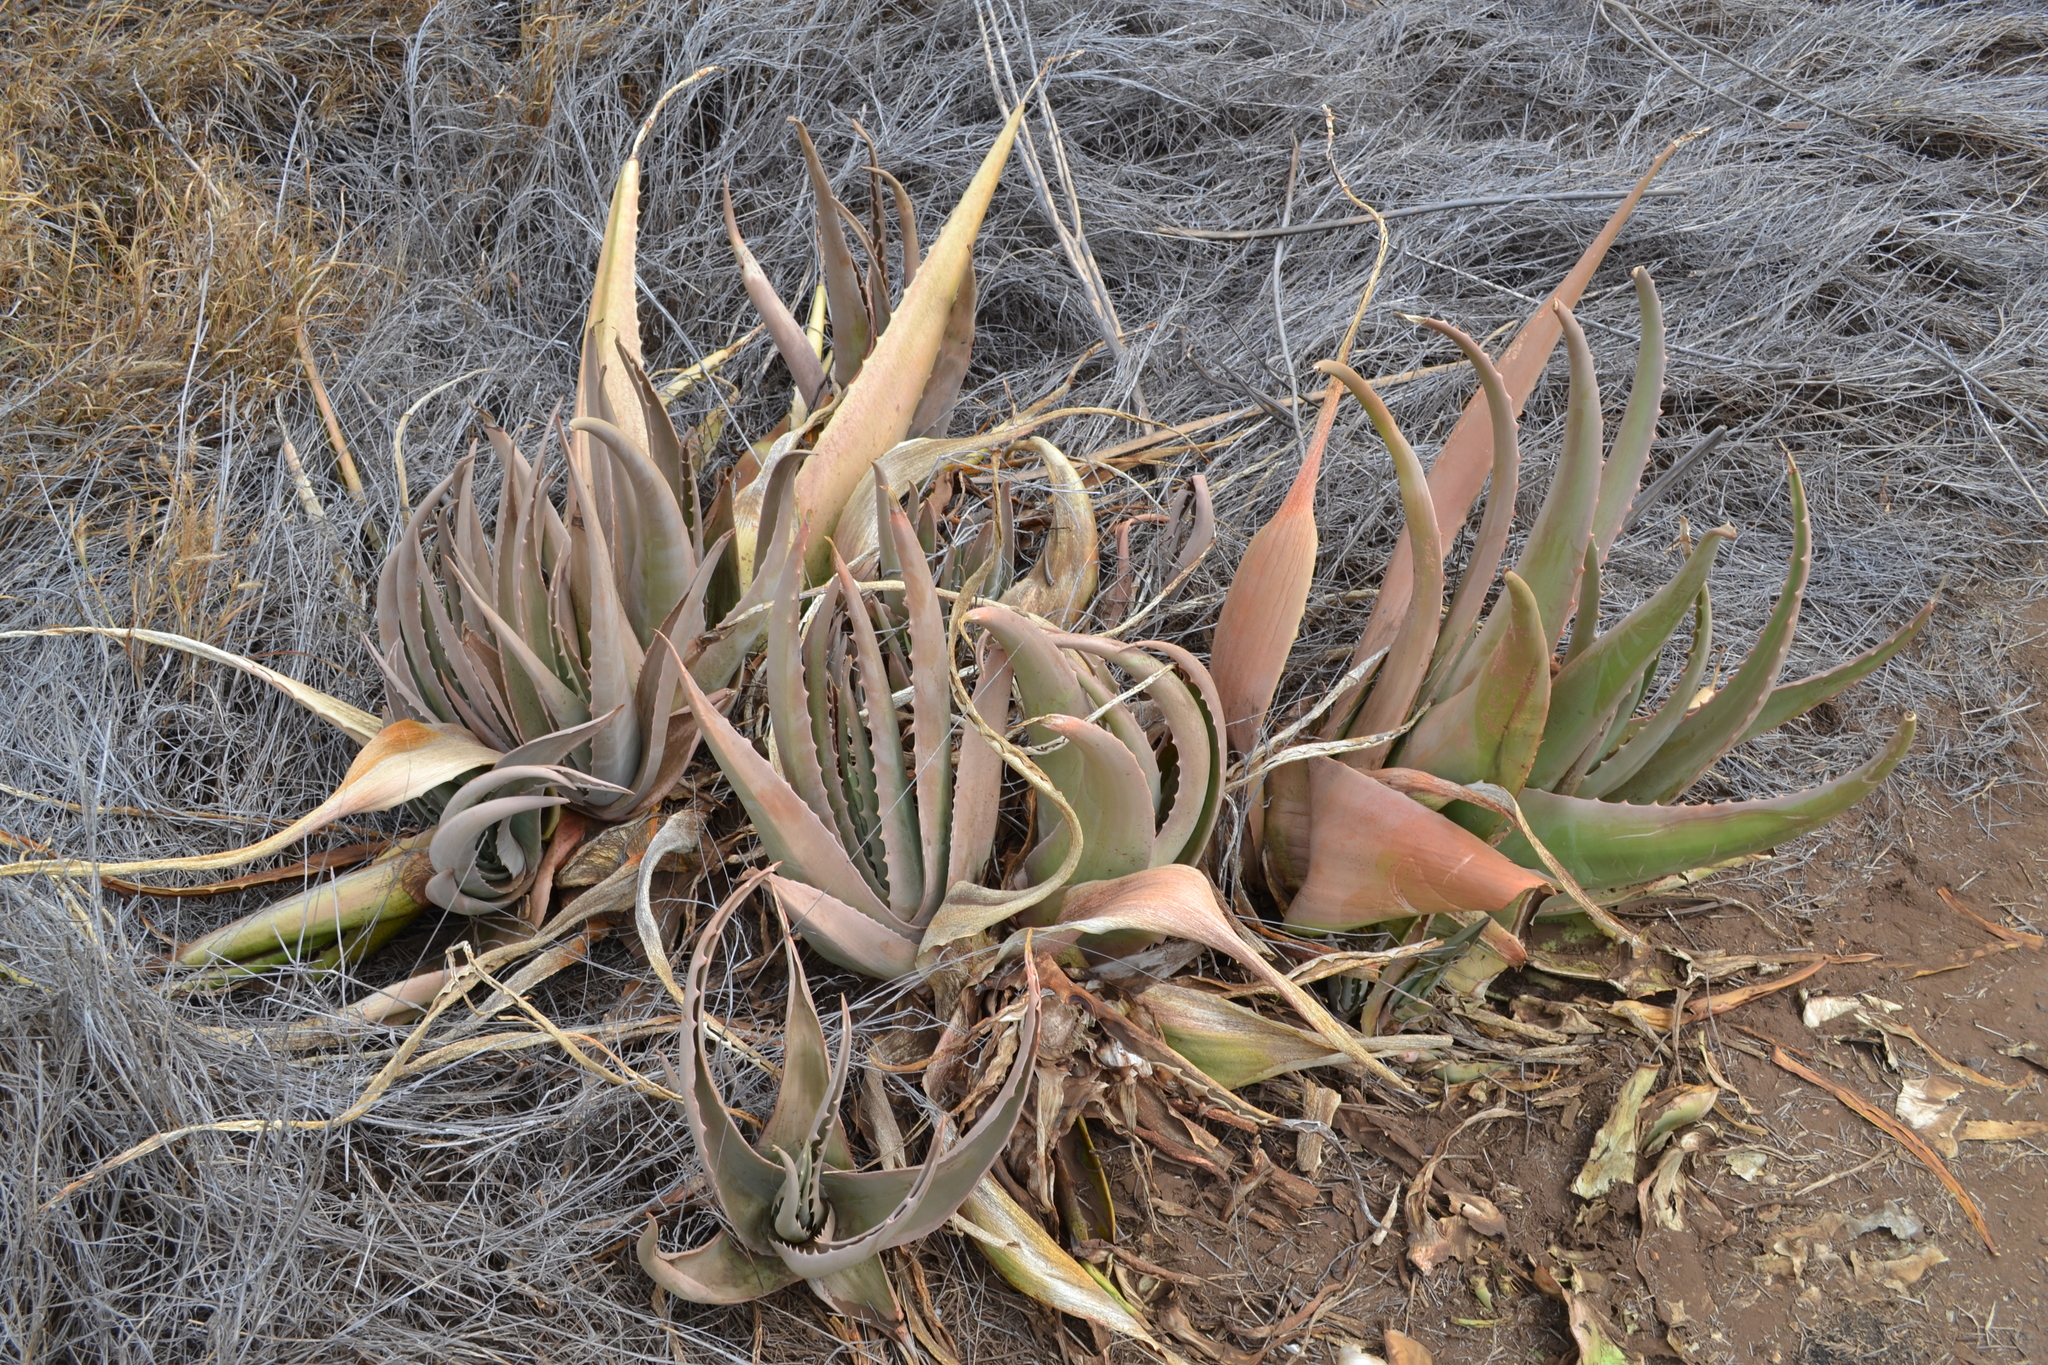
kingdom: Plantae
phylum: Tracheophyta
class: Liliopsida
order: Asparagales
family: Asphodelaceae
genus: Aloe
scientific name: Aloe vera
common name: Barbados aloe
